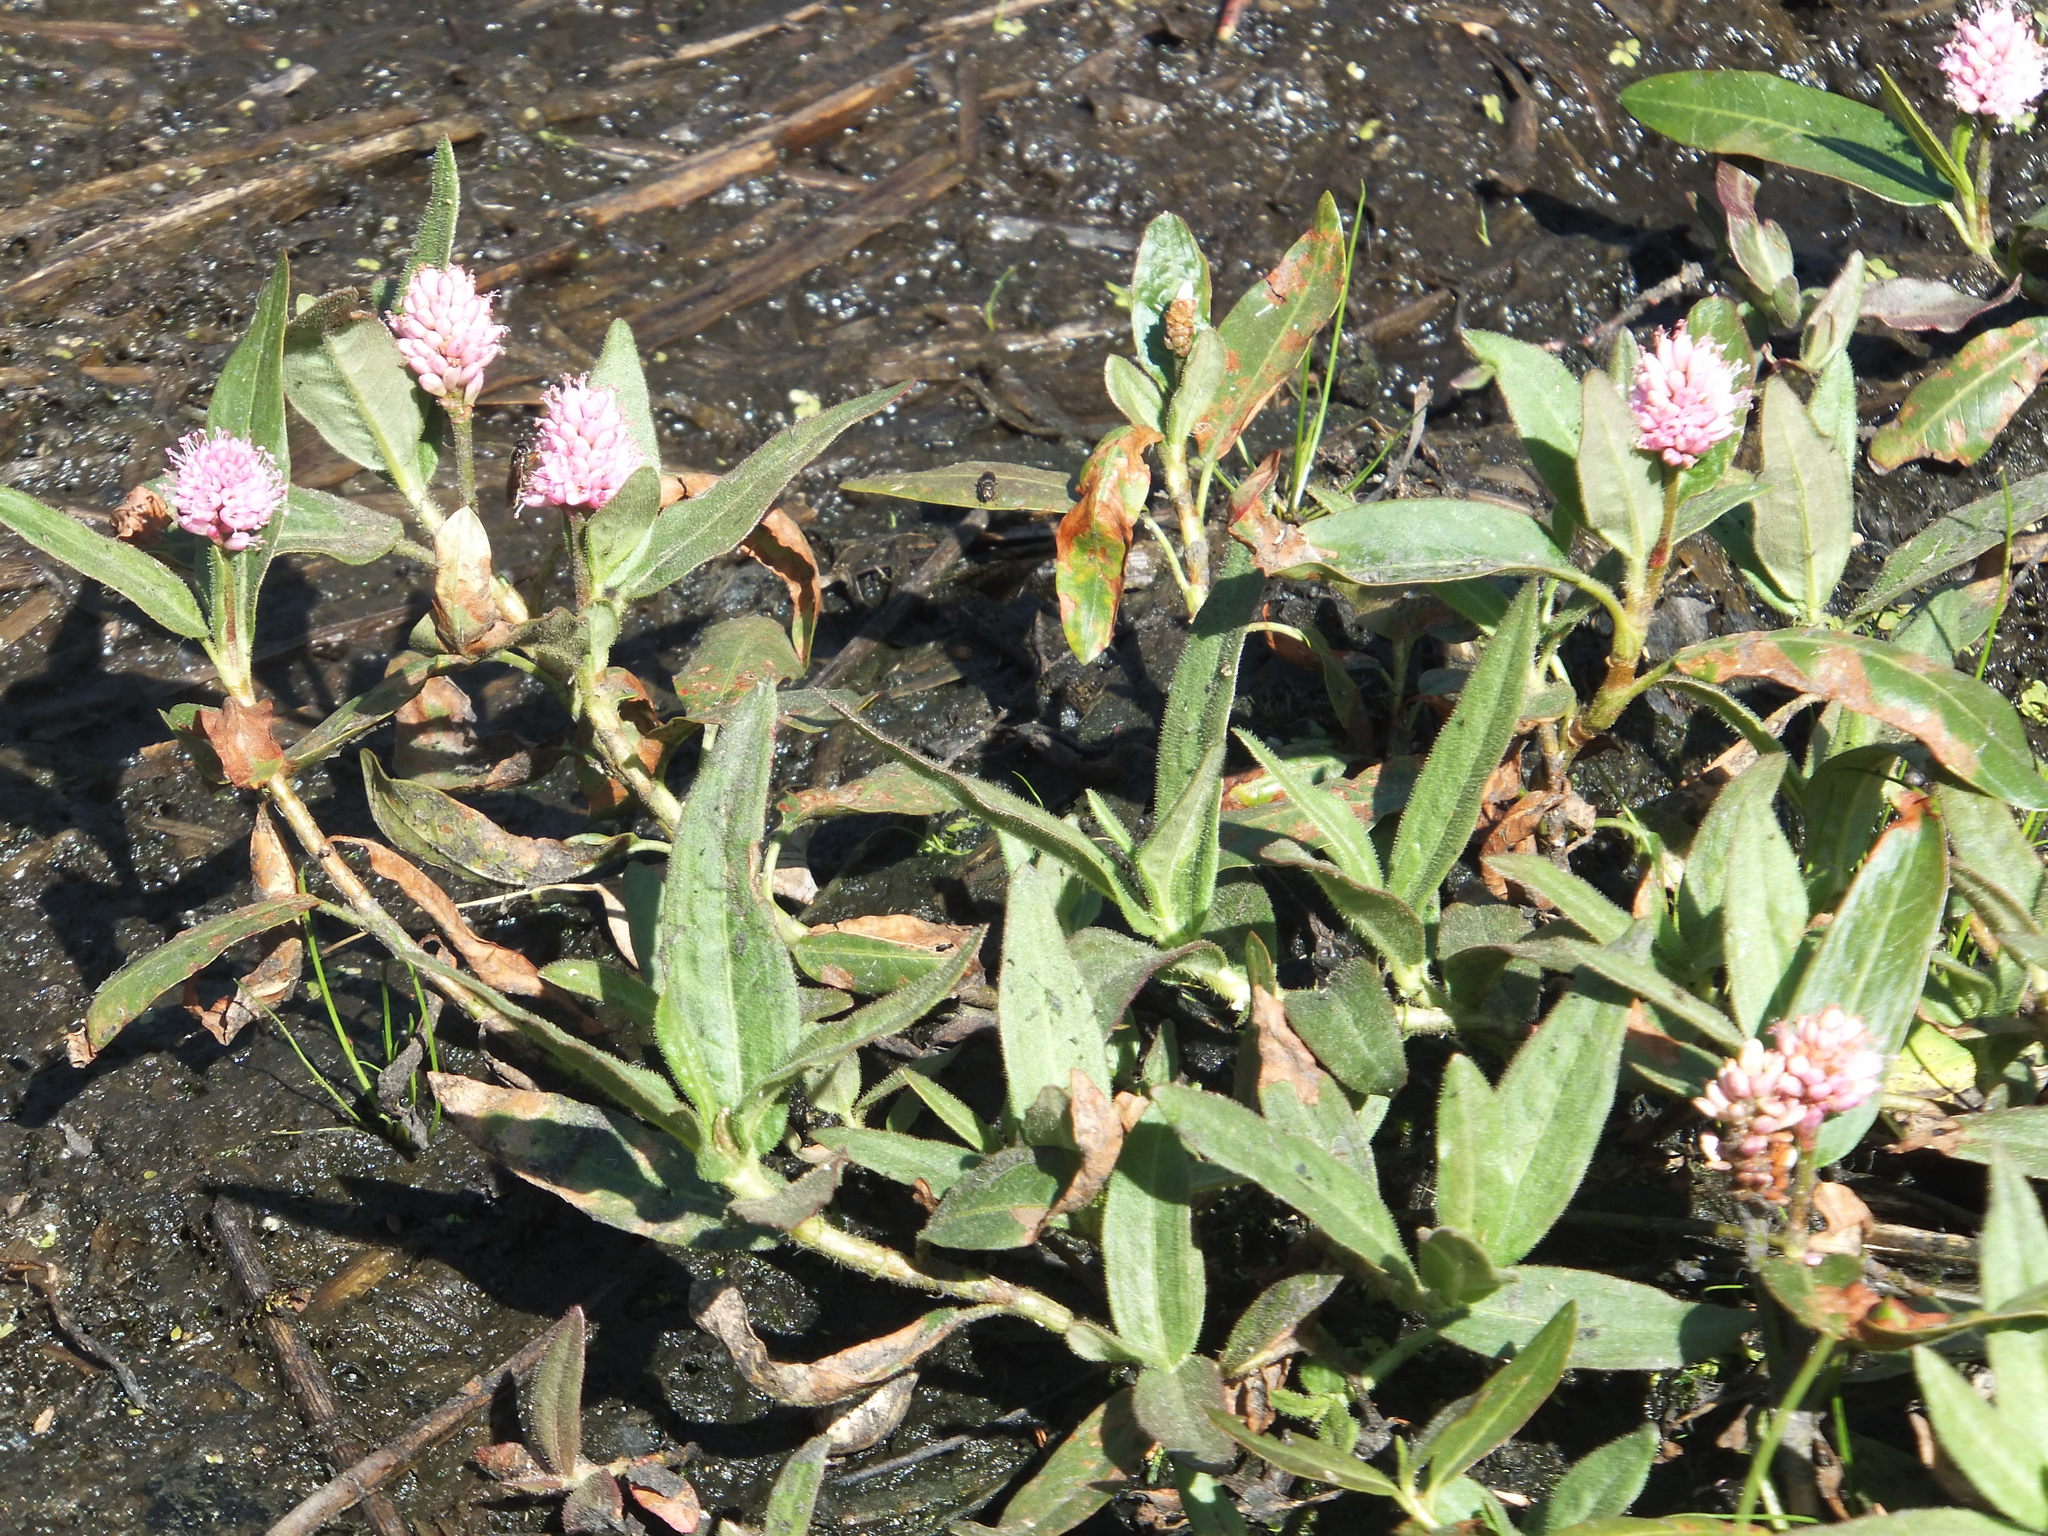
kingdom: Plantae
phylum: Tracheophyta
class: Magnoliopsida
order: Caryophyllales
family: Polygonaceae
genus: Persicaria
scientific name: Persicaria amphibia
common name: Amphibious bistort
